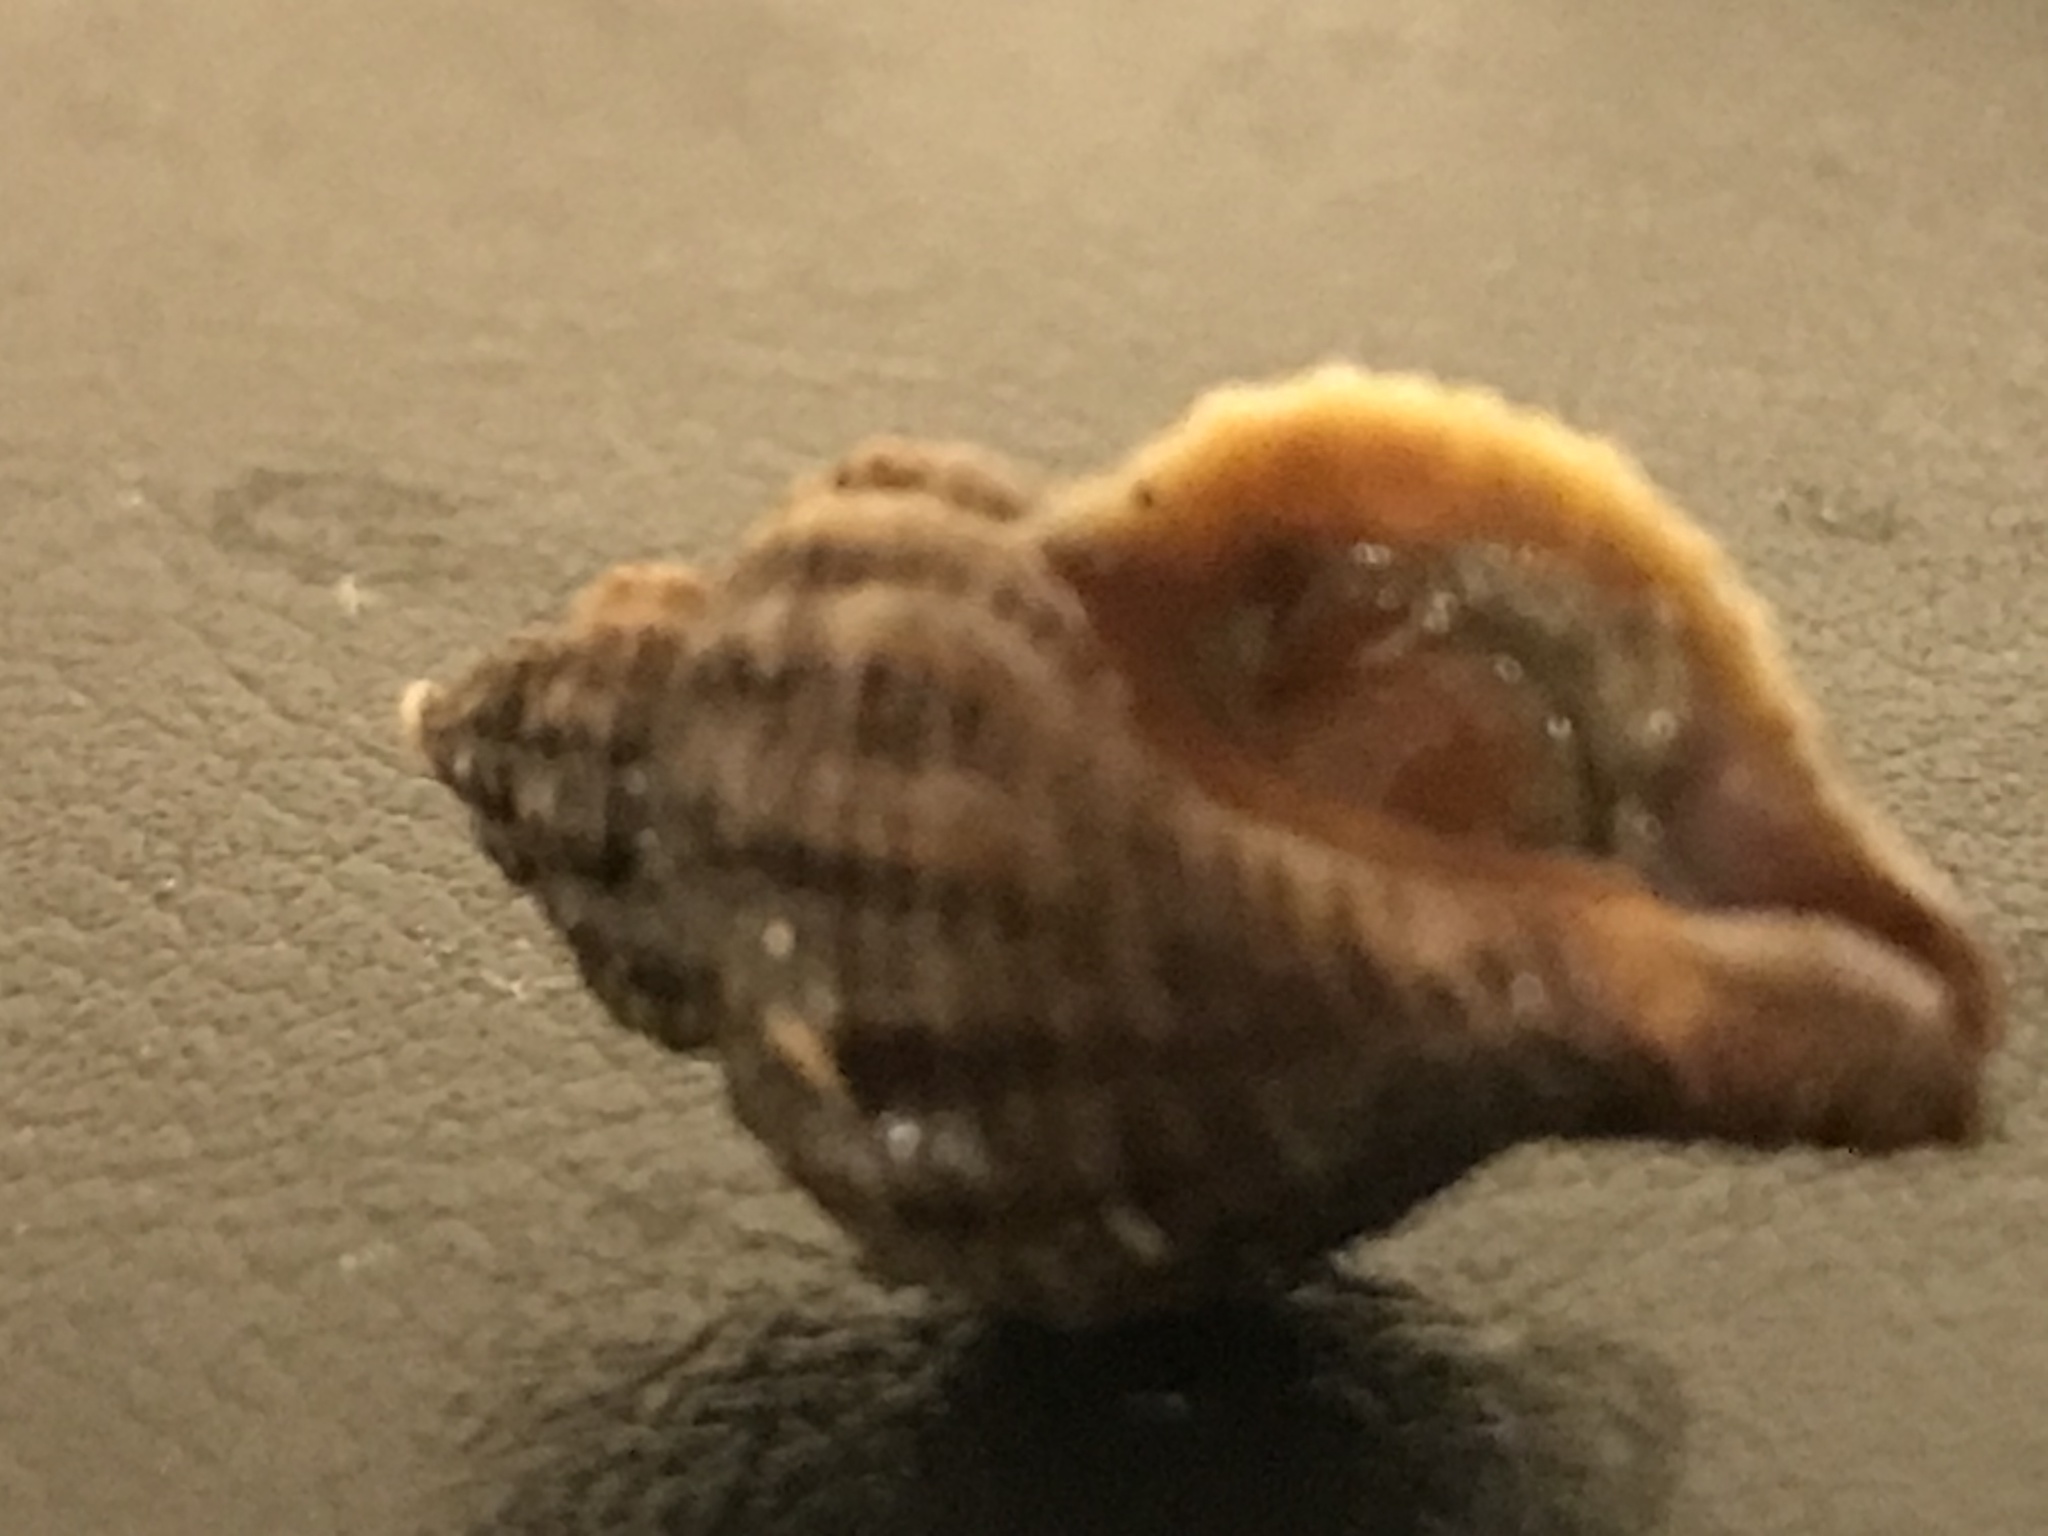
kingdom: Animalia
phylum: Mollusca
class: Gastropoda
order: Neogastropoda
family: Muricidae
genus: Urosalpinx
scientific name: Urosalpinx cinerea
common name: American sting winkle
